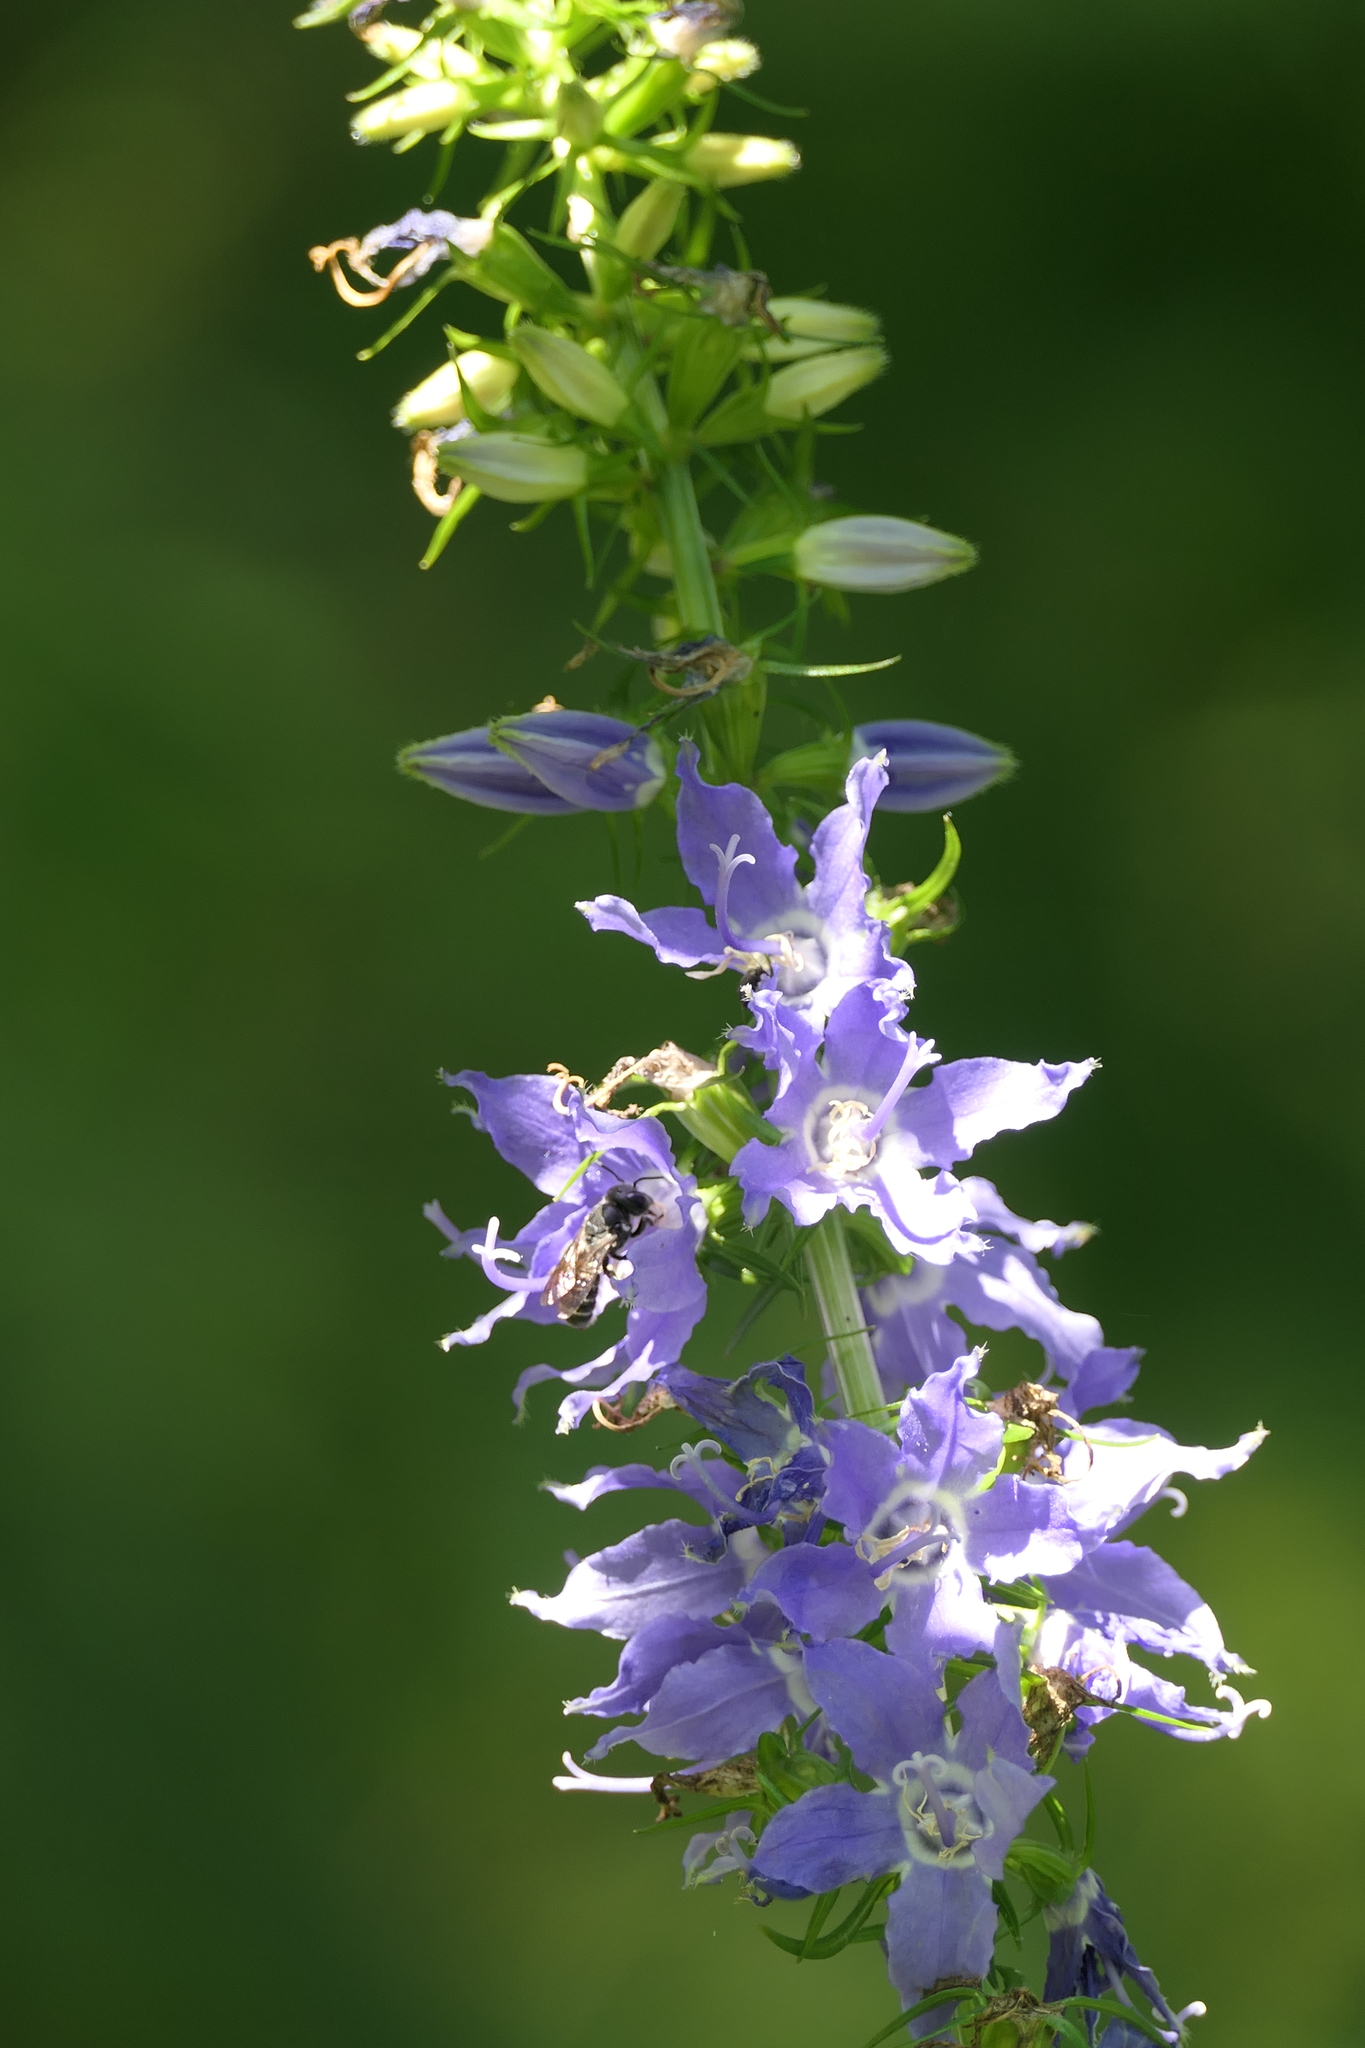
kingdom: Plantae
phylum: Tracheophyta
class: Magnoliopsida
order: Asterales
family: Campanulaceae
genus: Campanulastrum
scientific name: Campanulastrum americanum
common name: American bellflower
